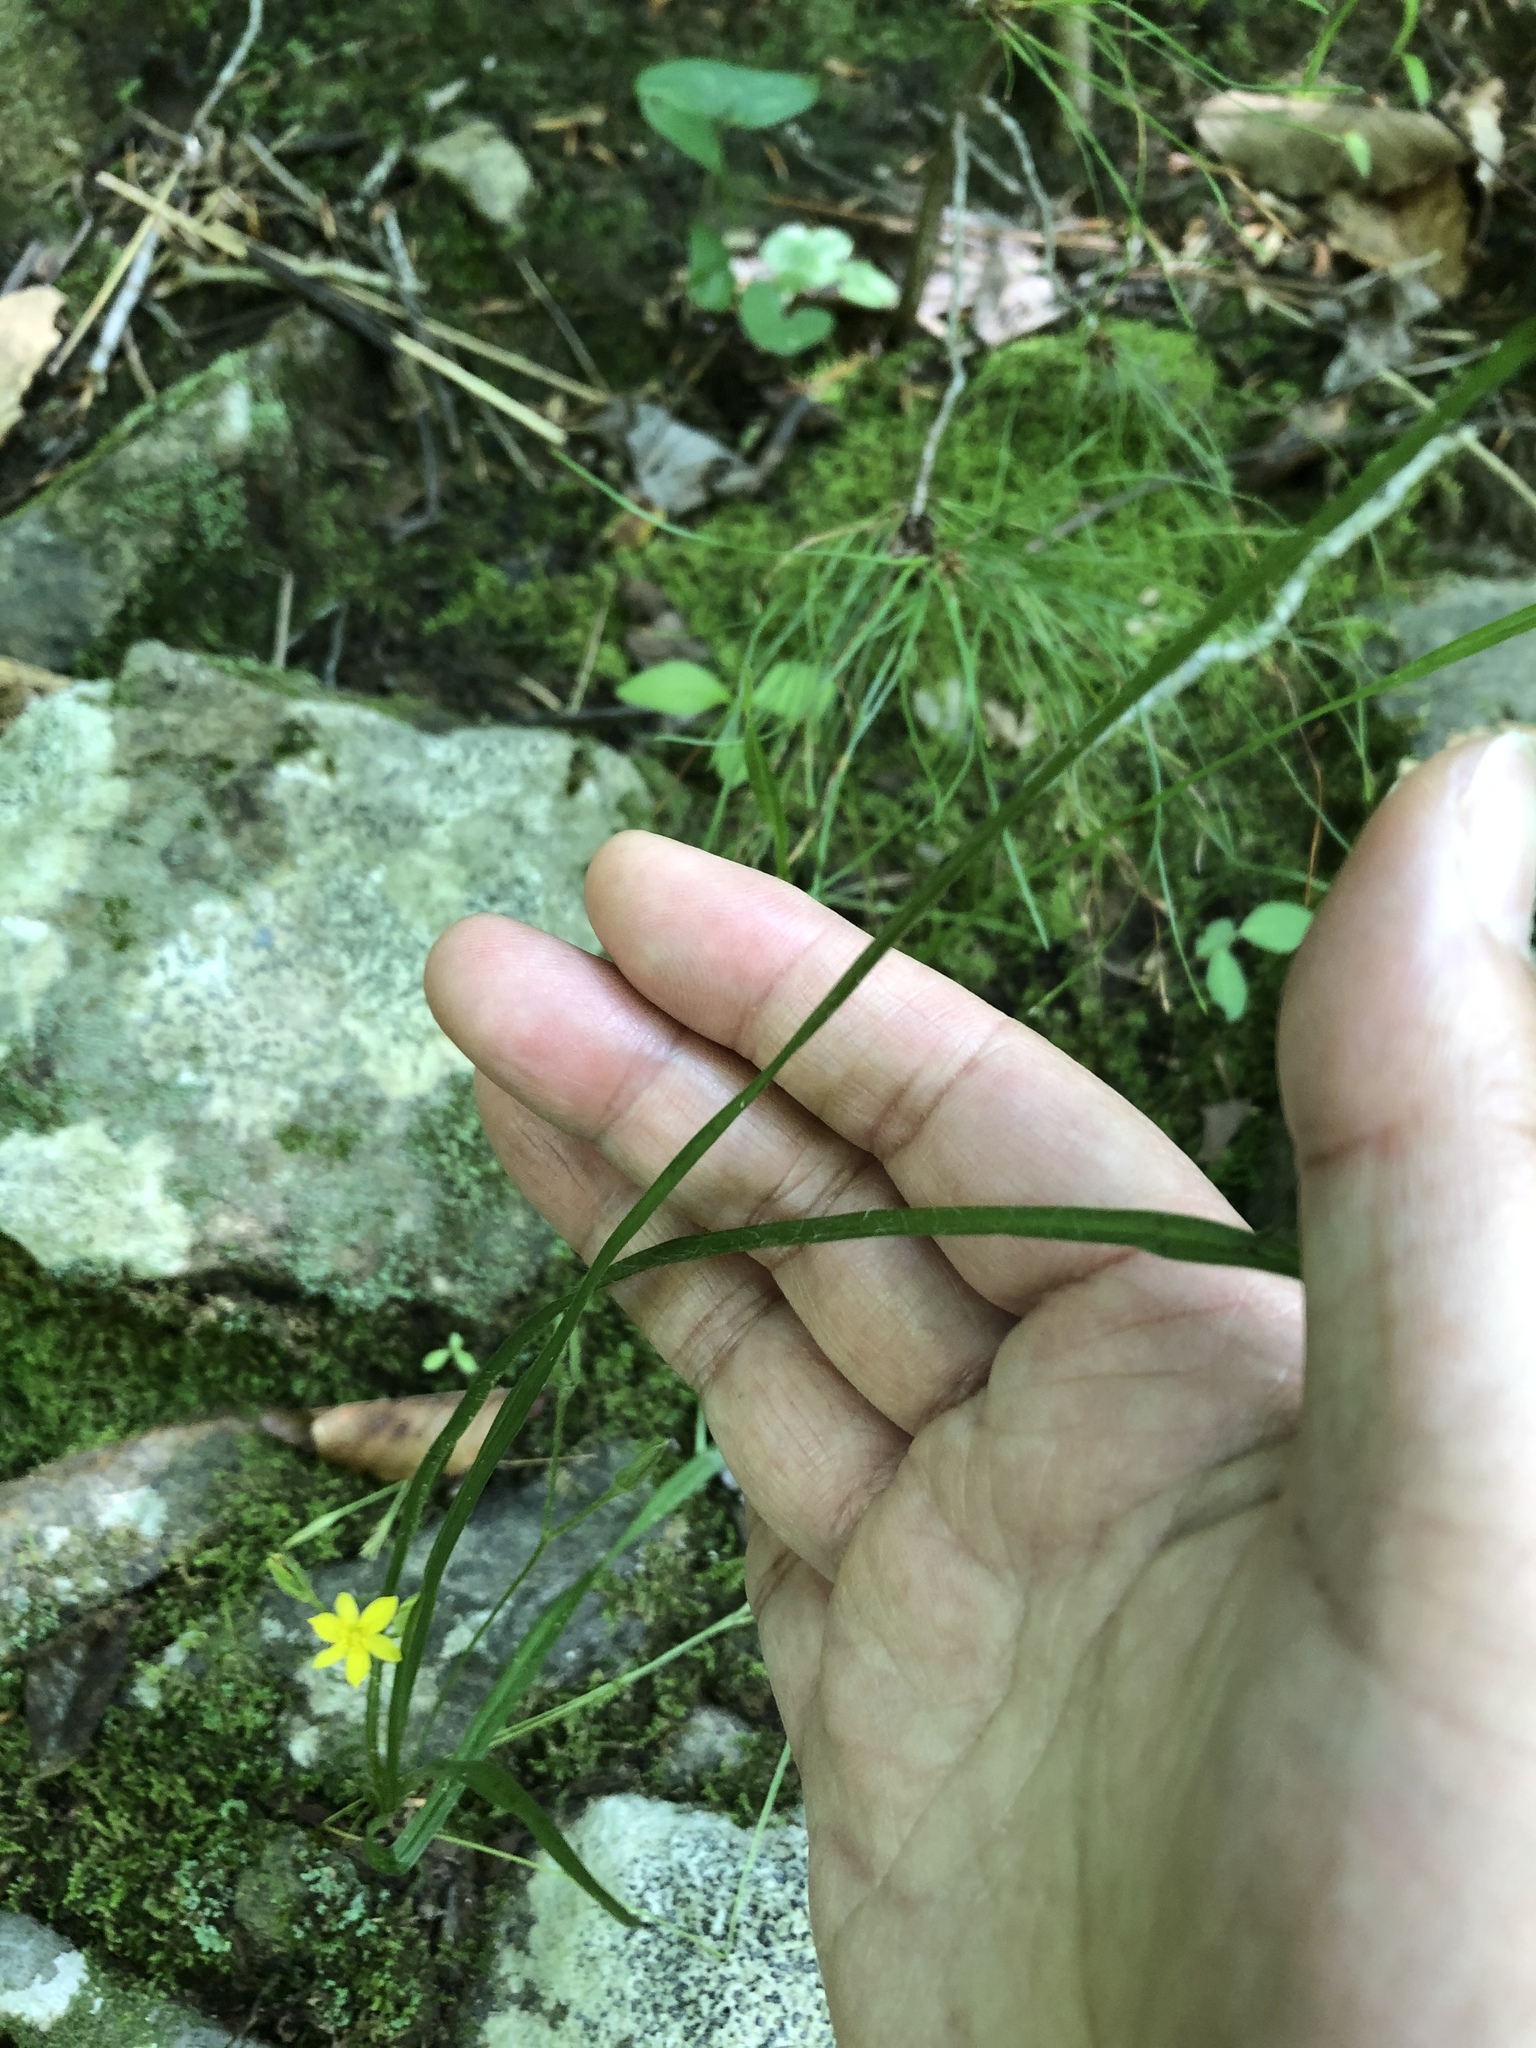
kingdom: Plantae
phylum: Tracheophyta
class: Liliopsida
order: Asparagales
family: Hypoxidaceae
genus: Hypoxis
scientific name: Hypoxis hirsuta
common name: Common goldstar
